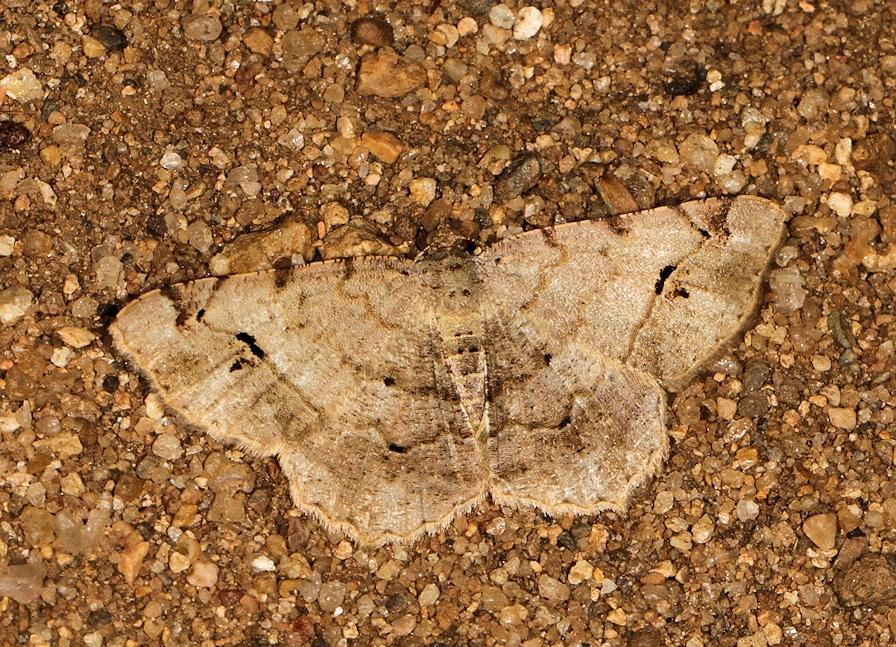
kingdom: Animalia
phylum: Arthropoda
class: Insecta
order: Lepidoptera
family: Geometridae
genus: Chiasmia
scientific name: Chiasmia deceptrix
